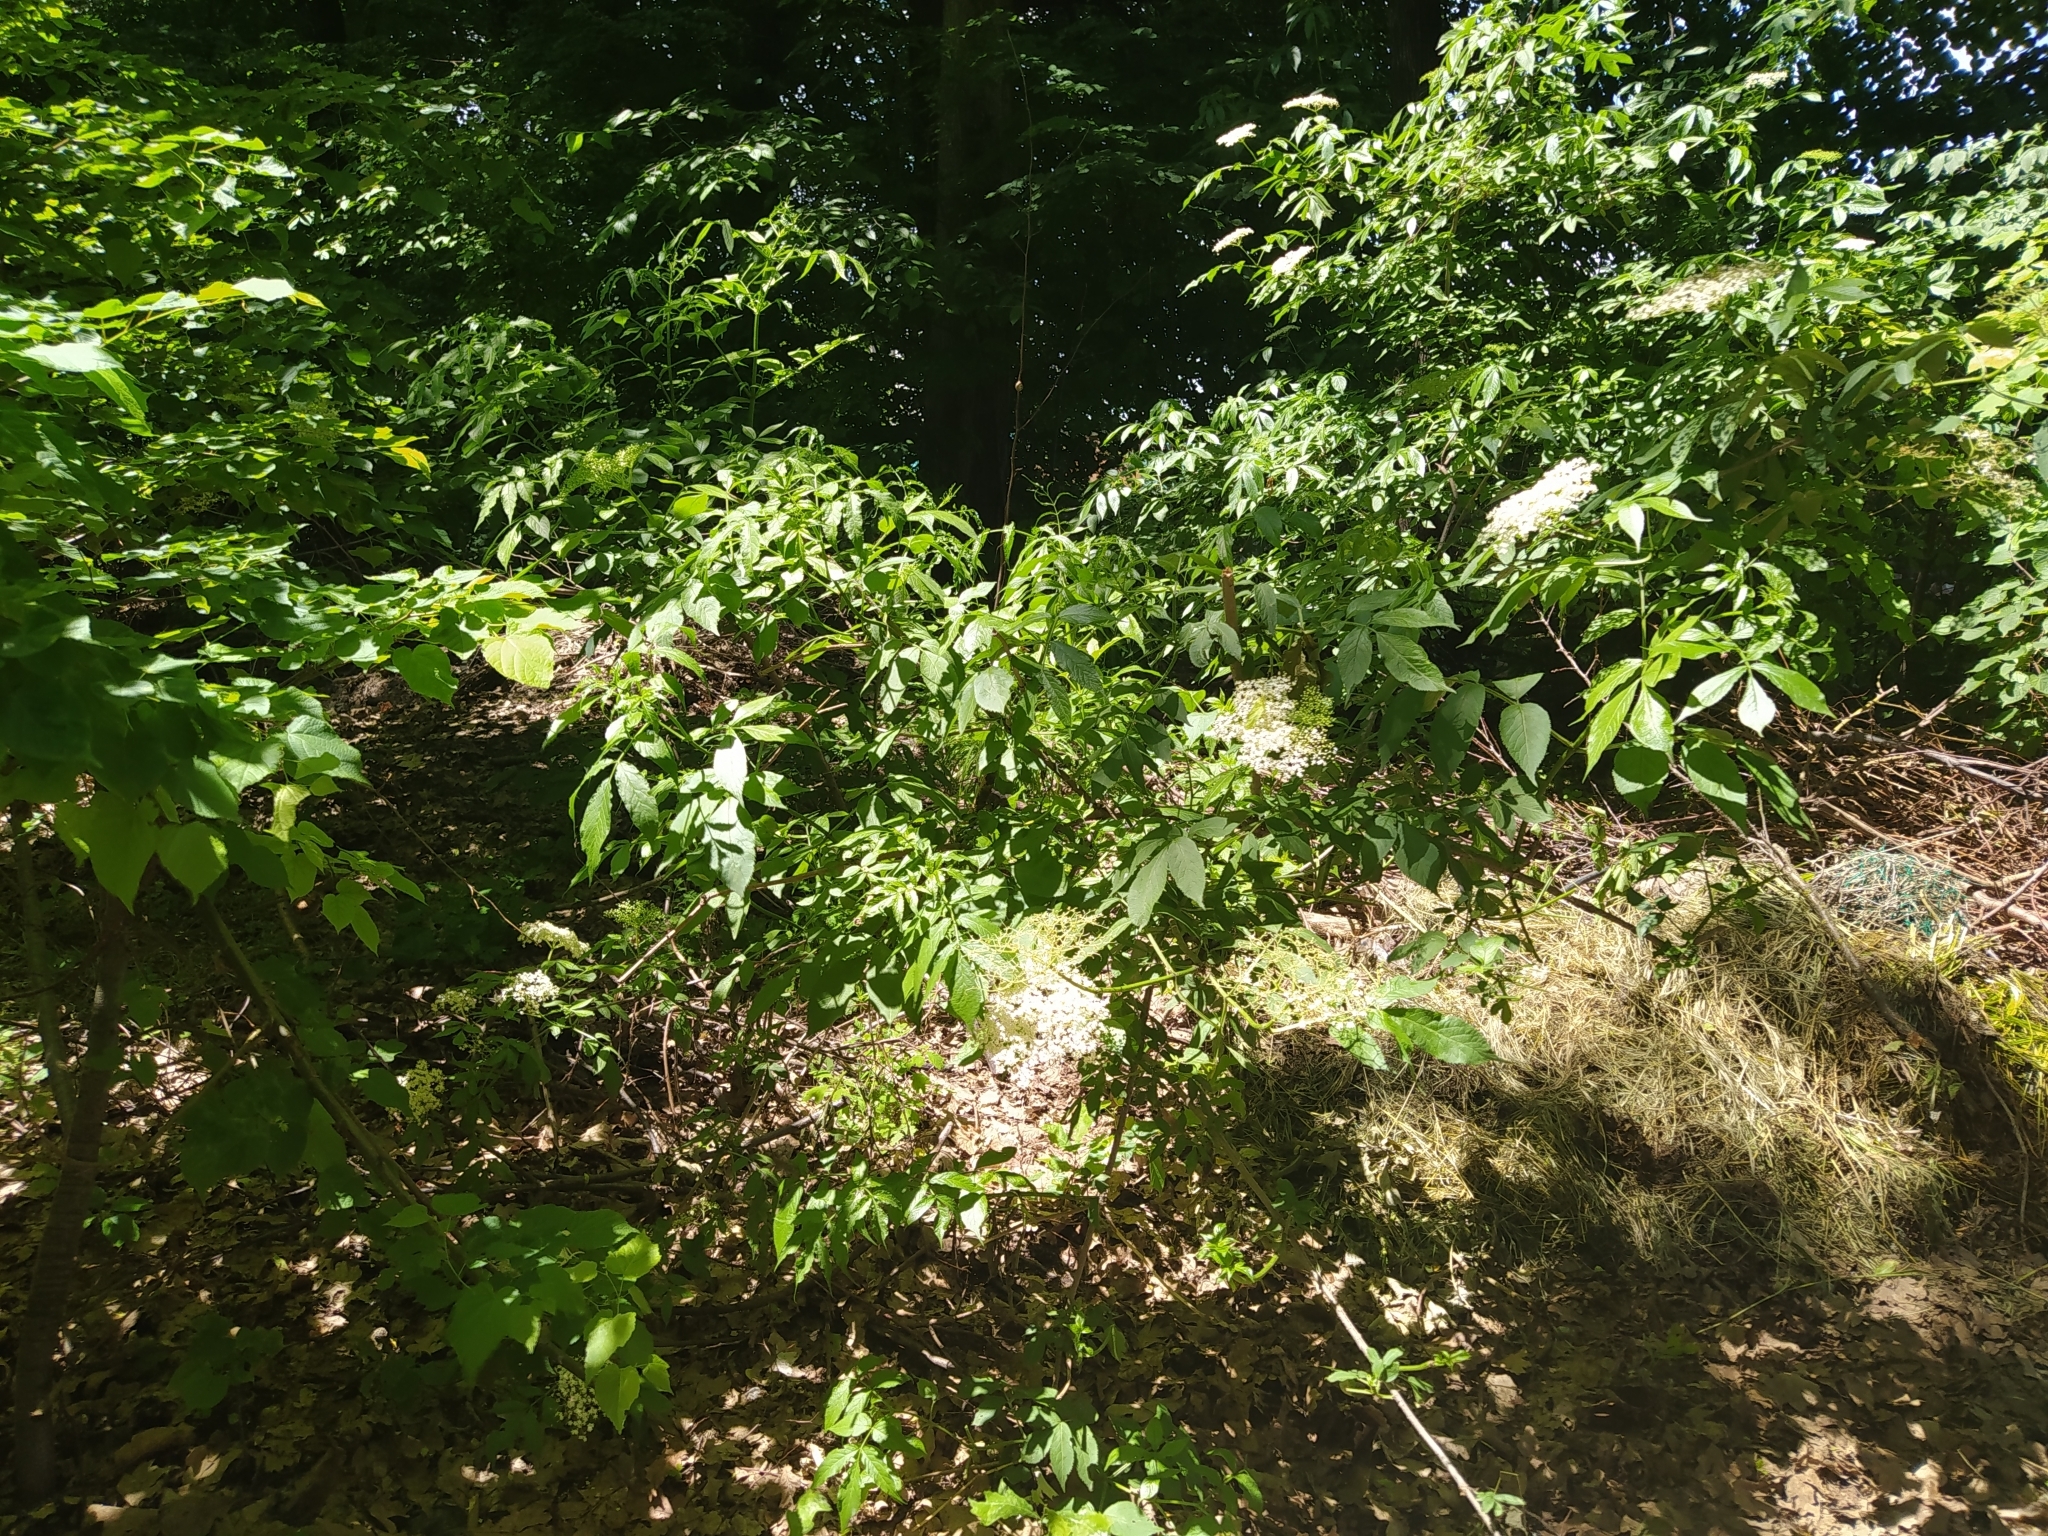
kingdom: Plantae
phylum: Tracheophyta
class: Magnoliopsida
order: Dipsacales
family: Viburnaceae
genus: Sambucus
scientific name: Sambucus nigra
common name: Elder
